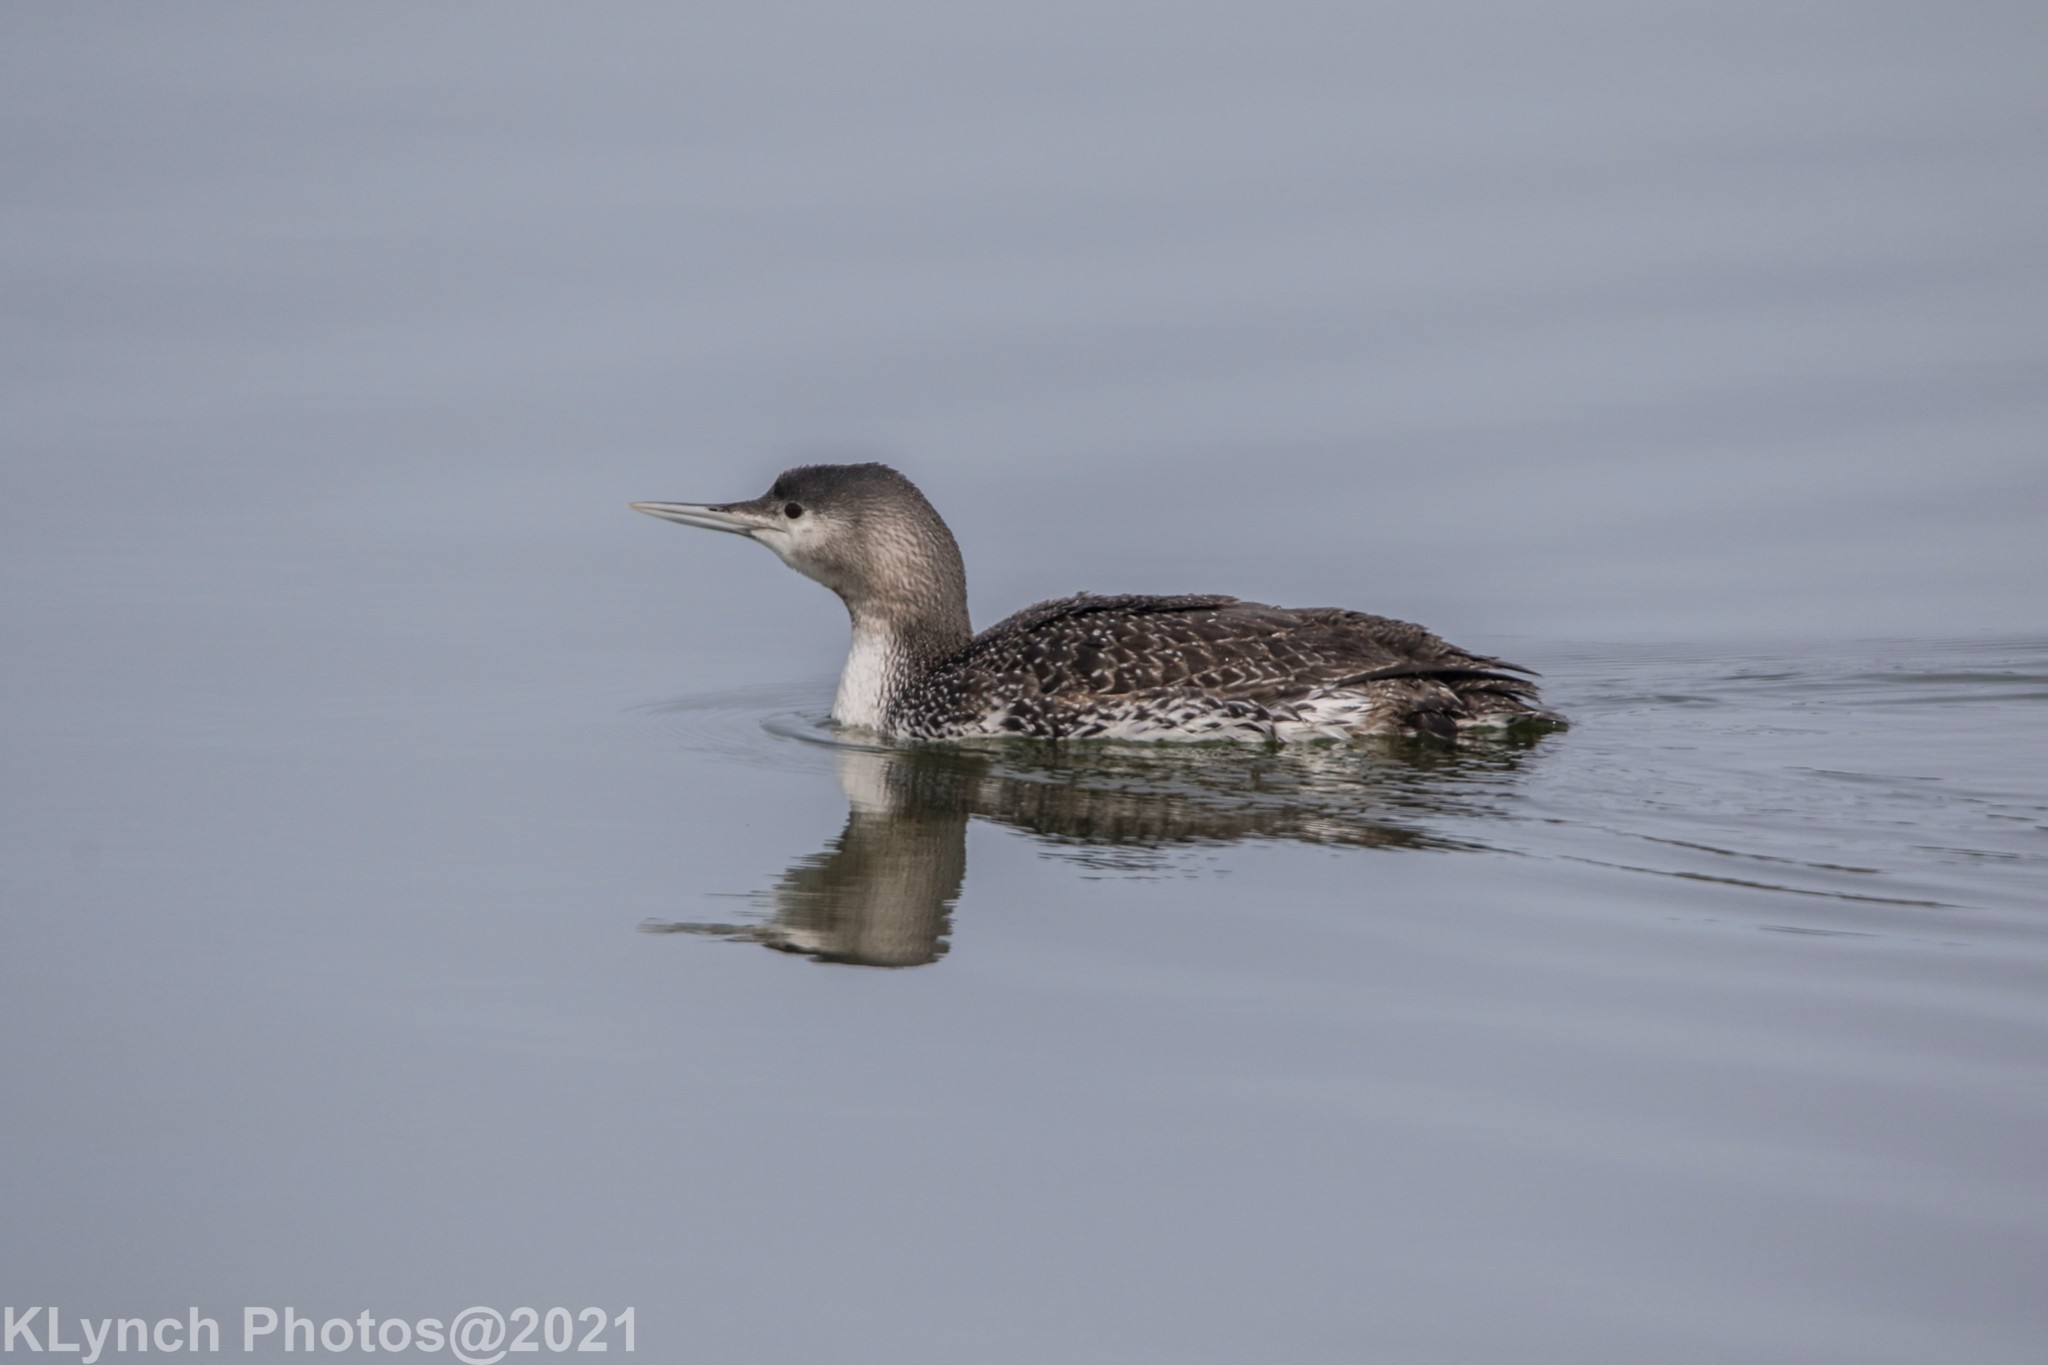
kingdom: Animalia
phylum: Chordata
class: Aves
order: Gaviiformes
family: Gaviidae
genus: Gavia
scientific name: Gavia immer
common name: Common loon
